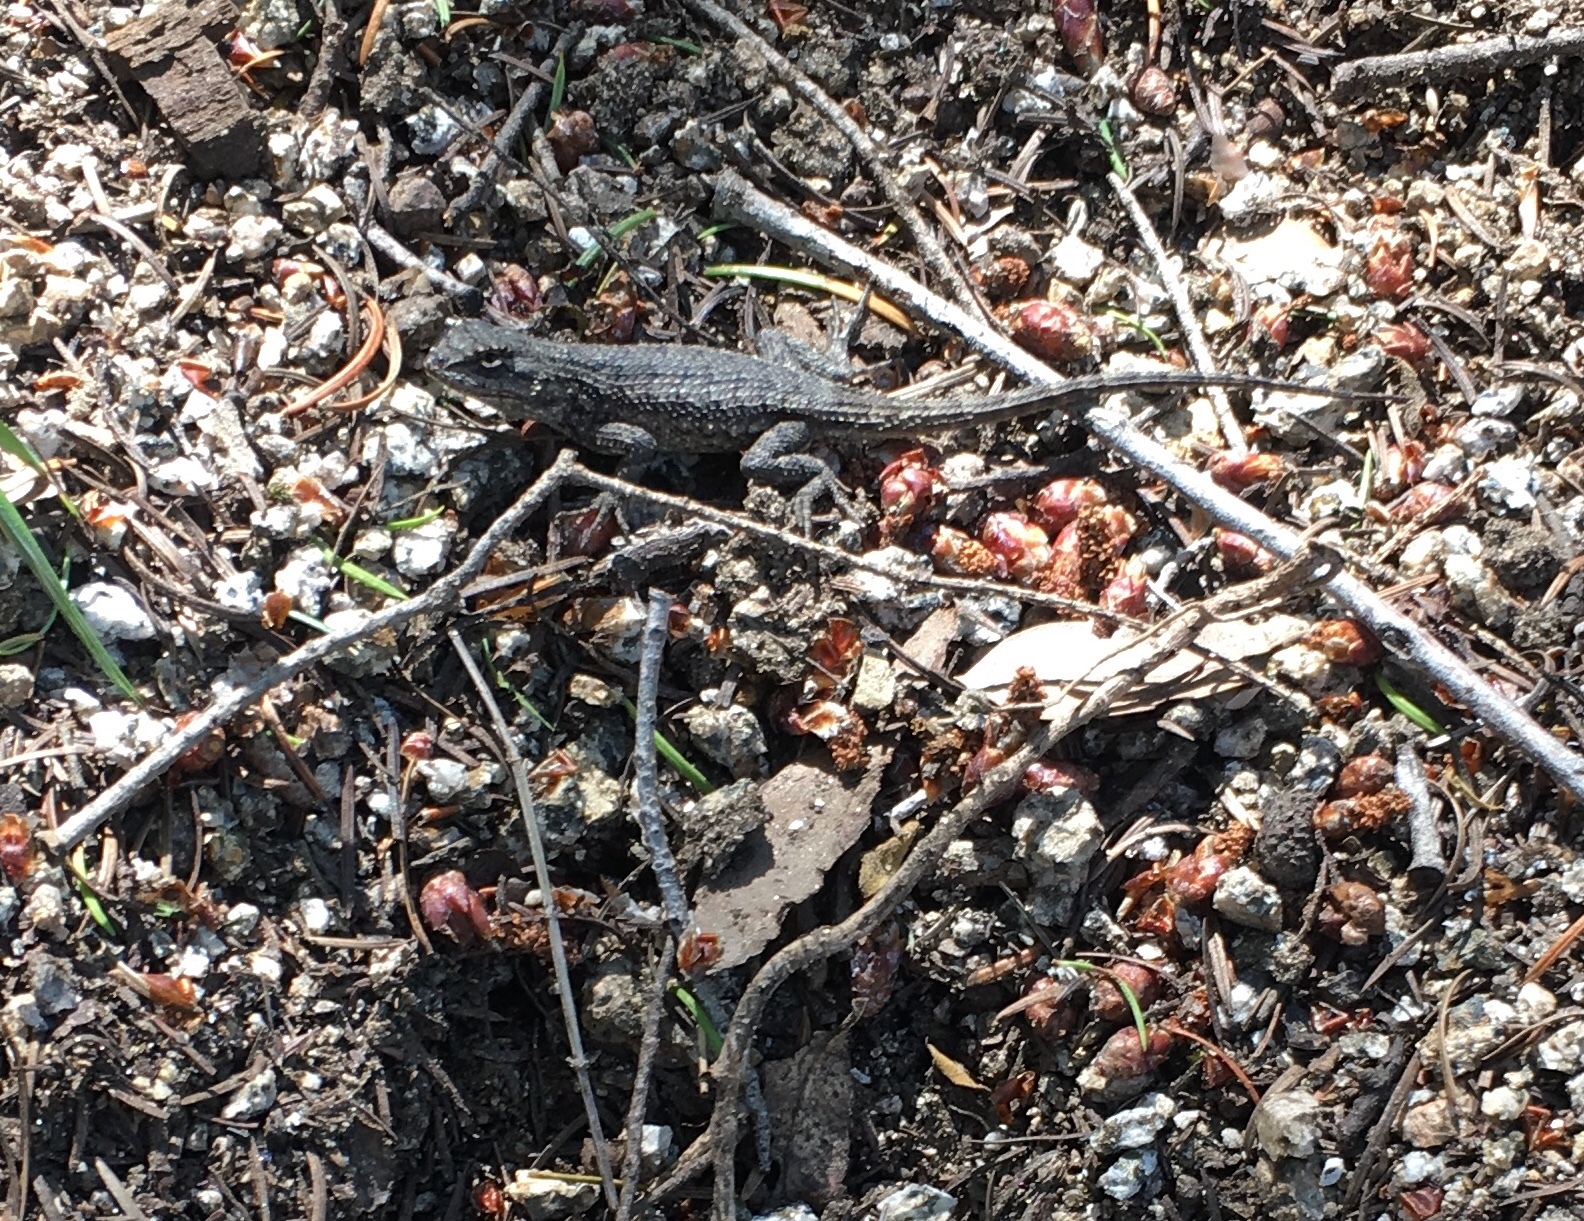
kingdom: Animalia
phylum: Chordata
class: Squamata
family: Phrynosomatidae
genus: Sceloporus
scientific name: Sceloporus occidentalis
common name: Western fence lizard
